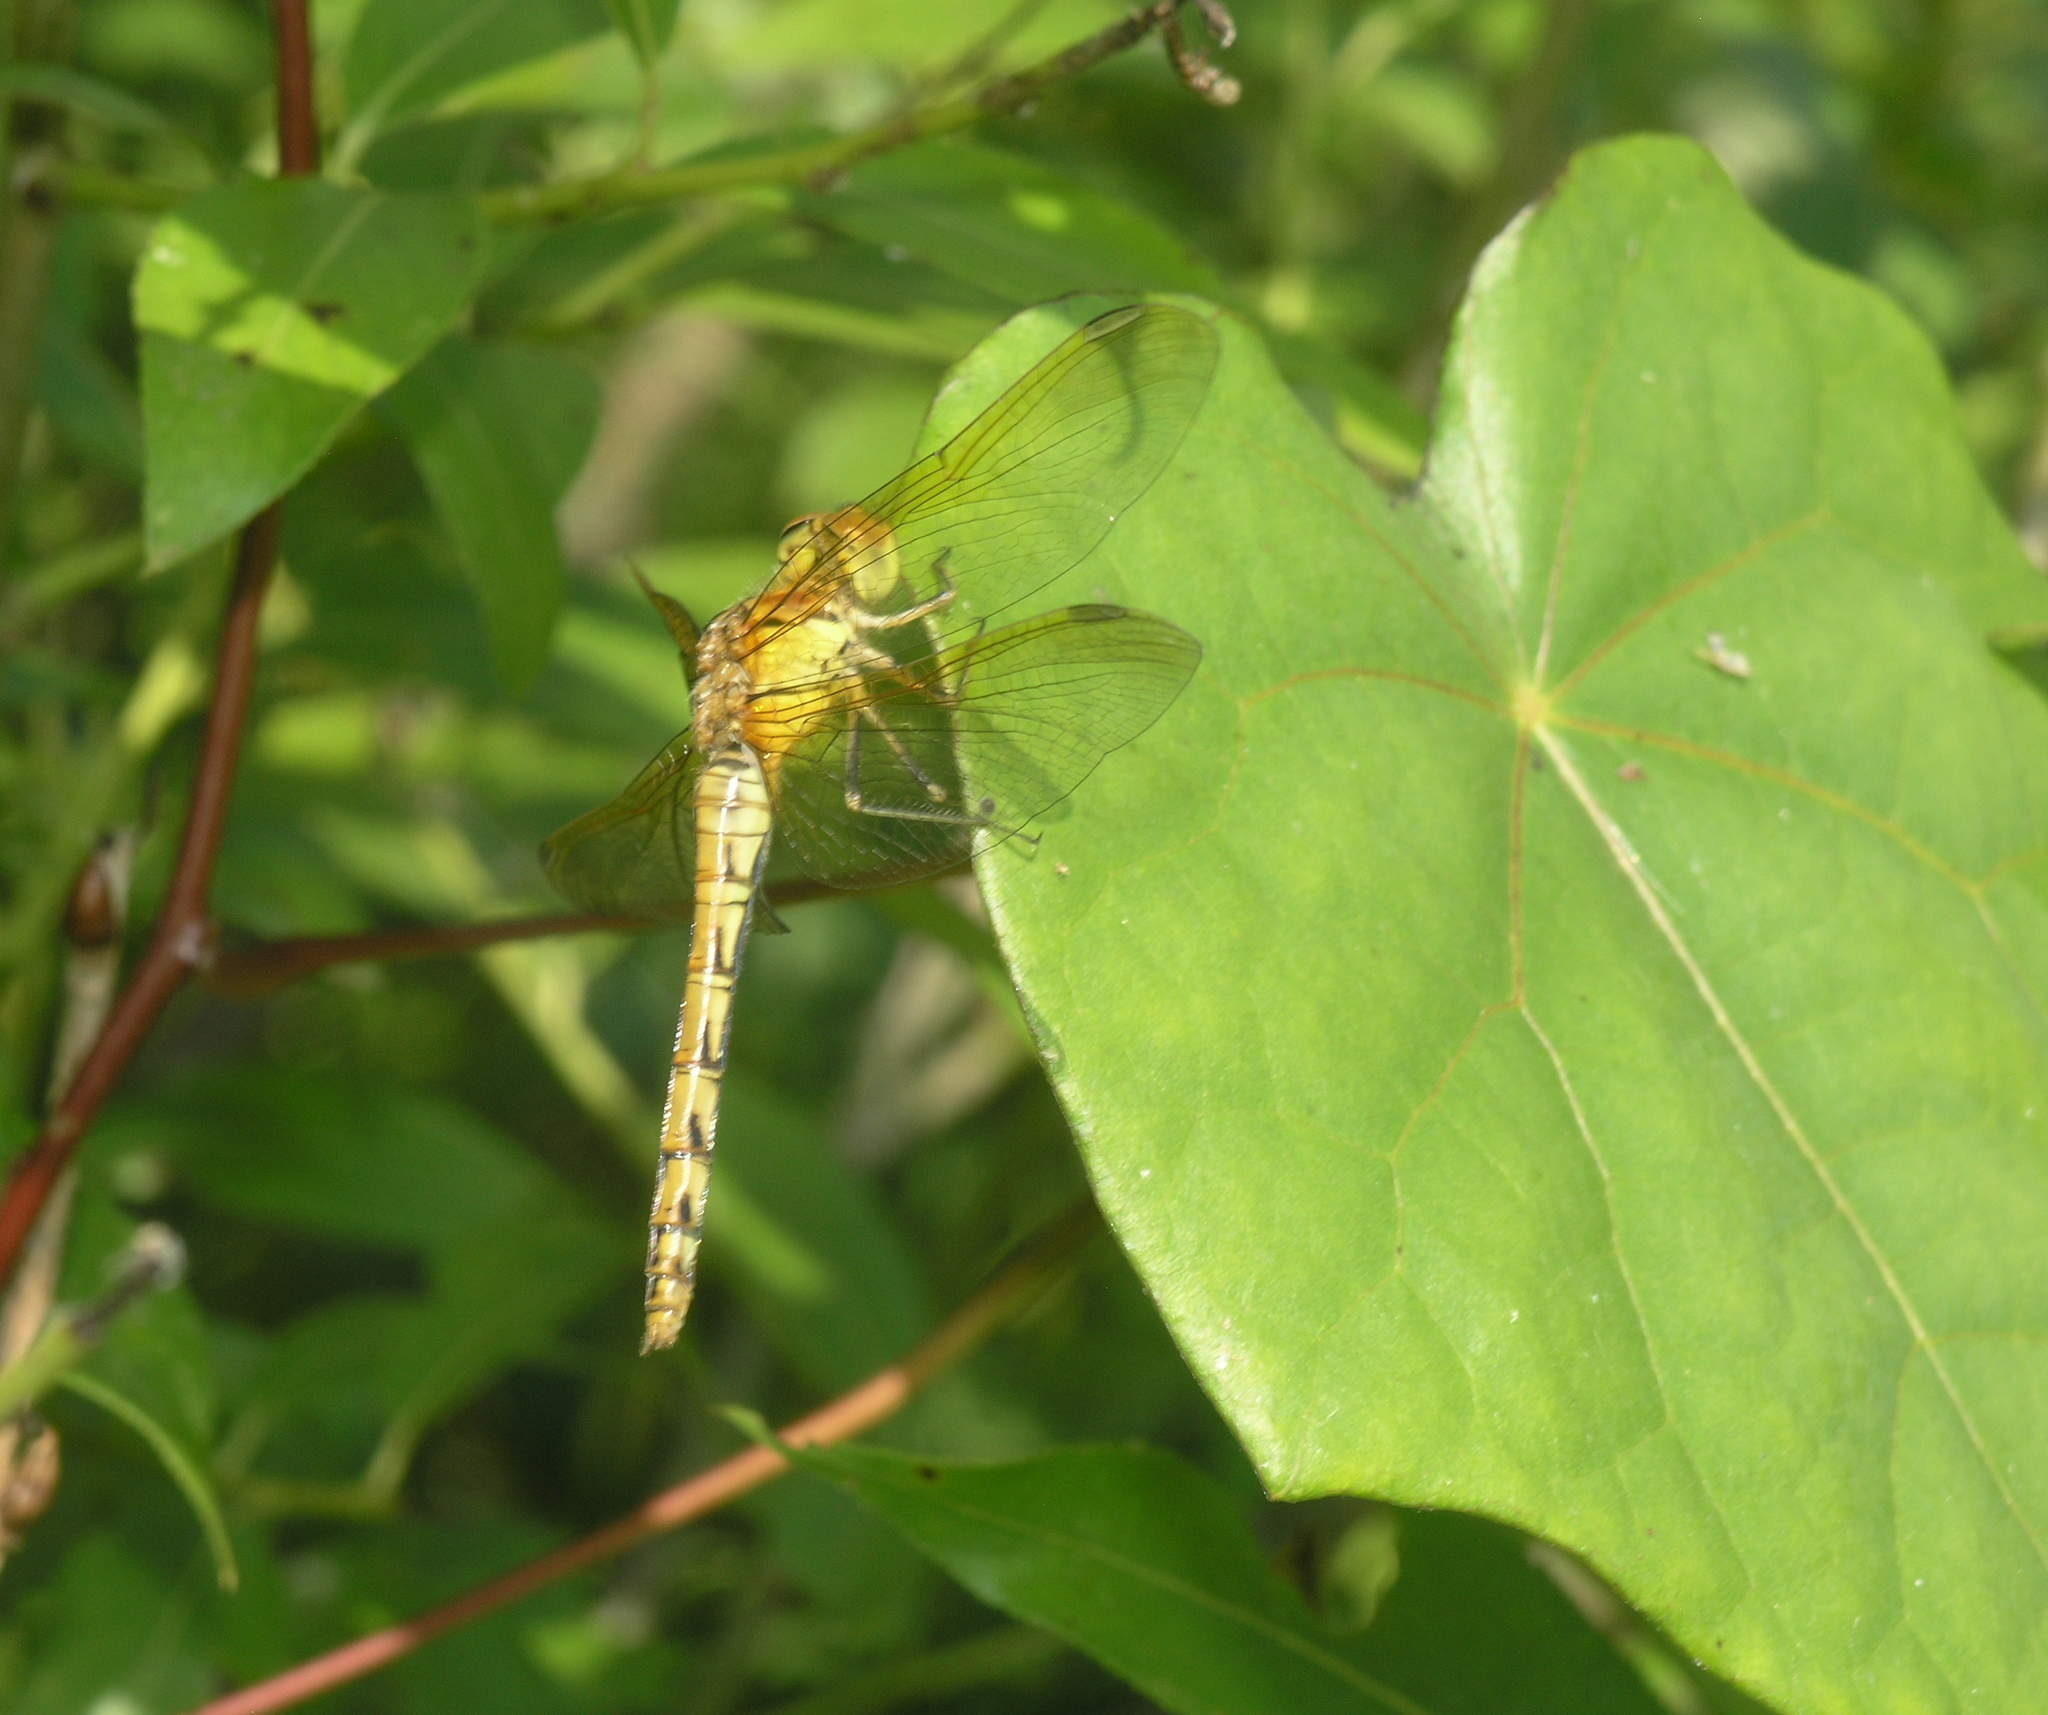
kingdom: Plantae
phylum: Tracheophyta
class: Magnoliopsida
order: Ranunculales
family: Menispermaceae
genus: Menispermum
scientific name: Menispermum dauricum
